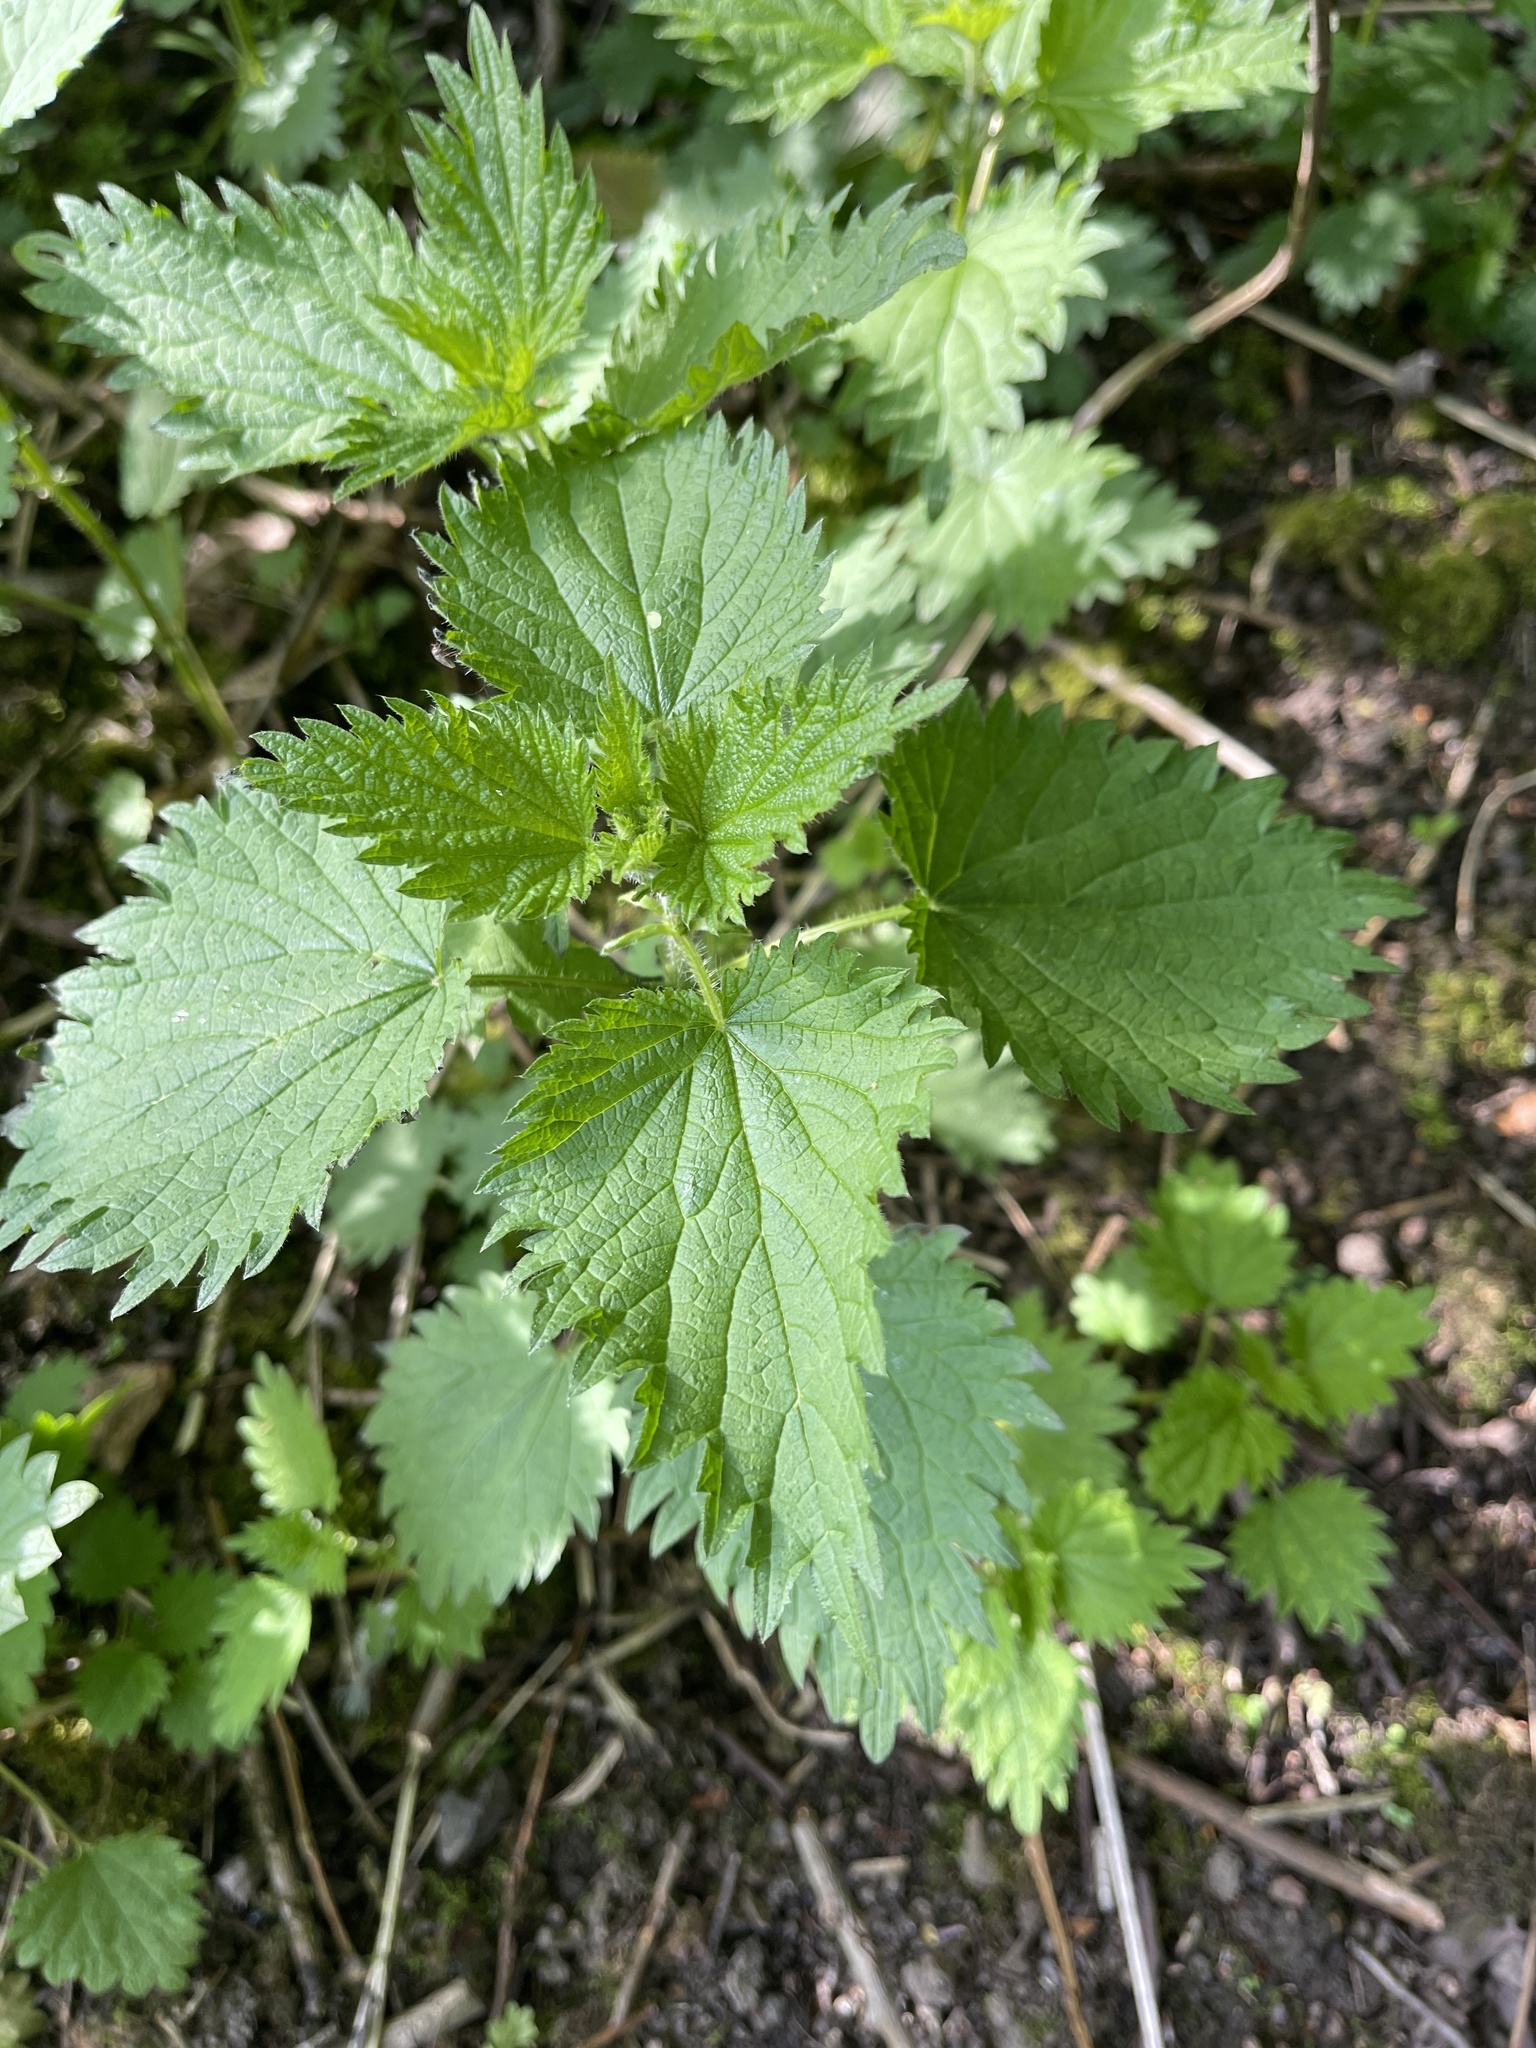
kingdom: Plantae
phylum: Tracheophyta
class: Magnoliopsida
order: Rosales
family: Urticaceae
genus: Urtica
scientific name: Urtica dioica
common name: Common nettle
